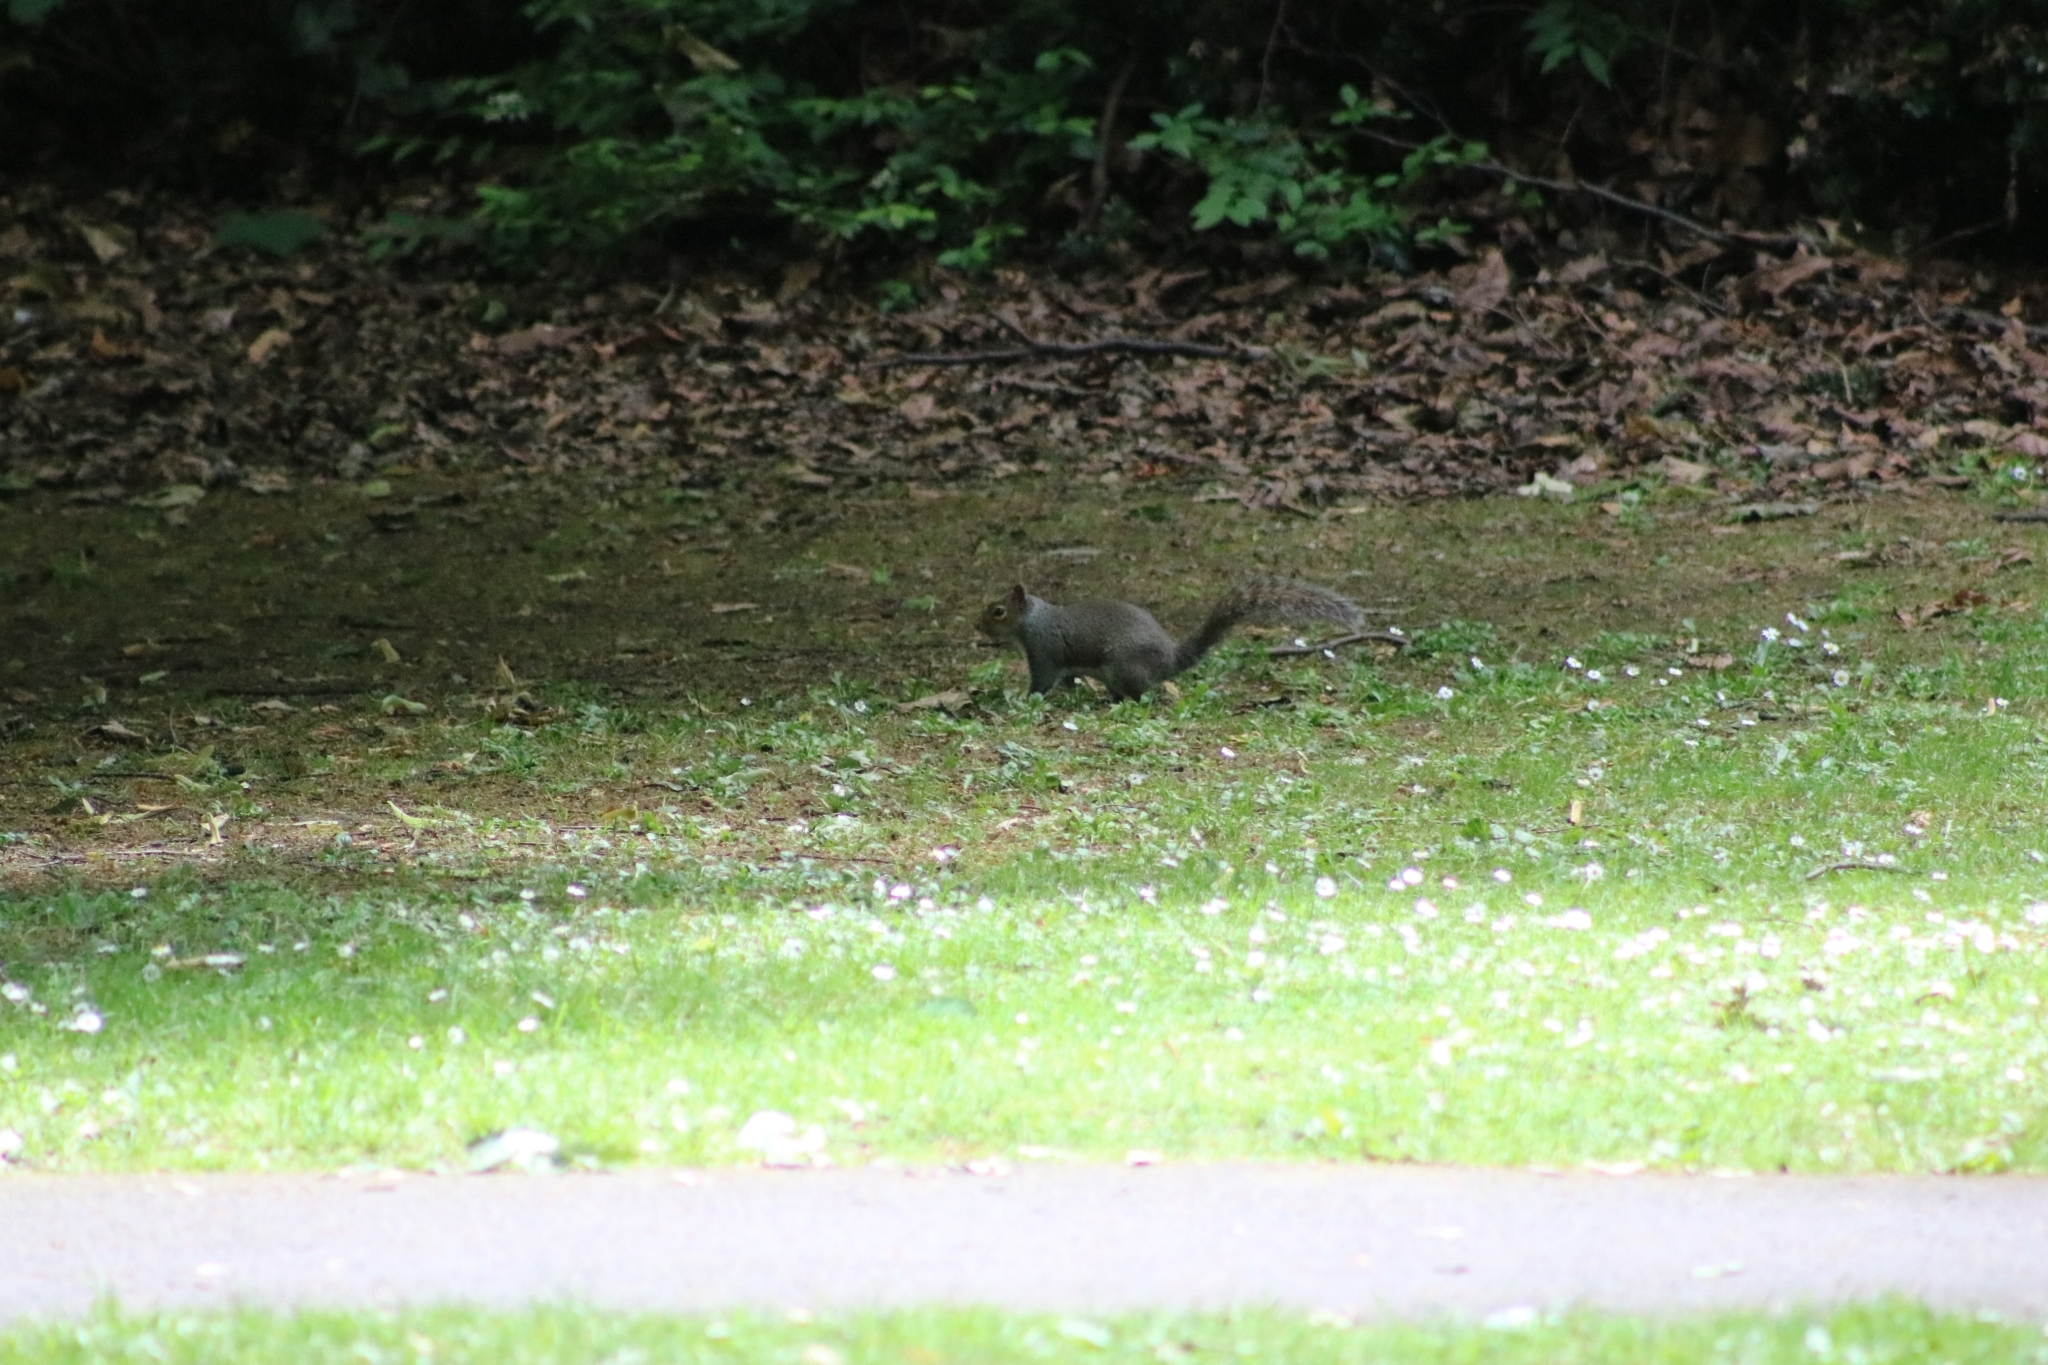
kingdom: Animalia
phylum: Chordata
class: Mammalia
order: Rodentia
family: Sciuridae
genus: Sciurus
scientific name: Sciurus carolinensis
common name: Eastern gray squirrel
